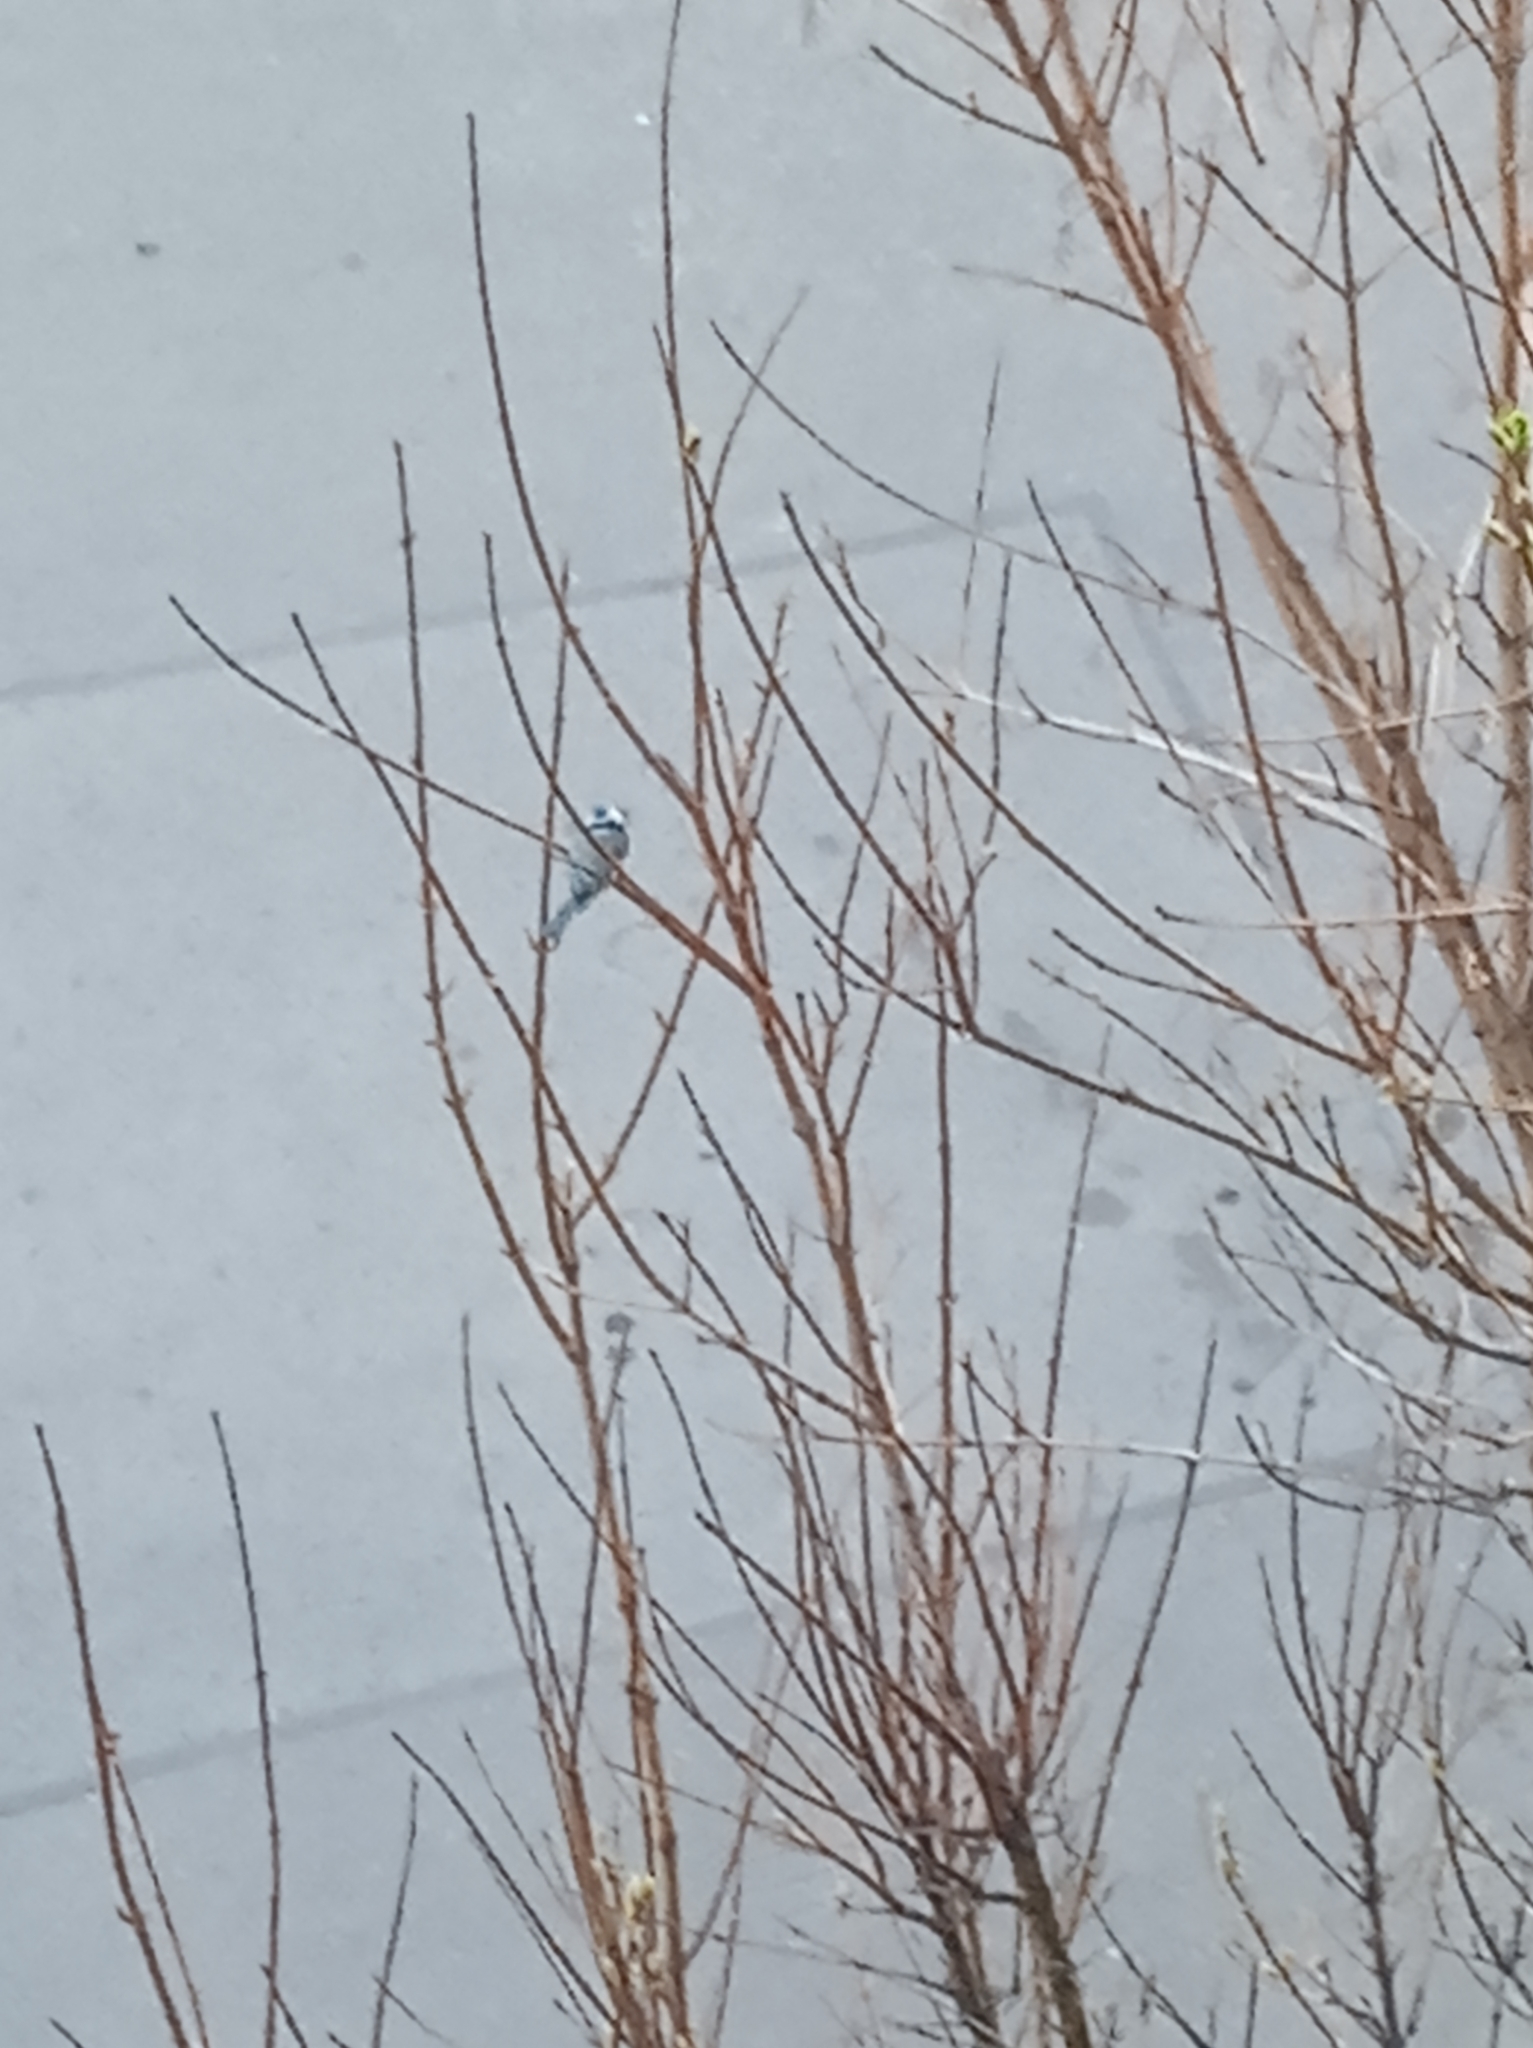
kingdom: Animalia
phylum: Chordata
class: Aves
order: Passeriformes
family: Paridae
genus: Cyanistes
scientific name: Cyanistes caeruleus
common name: Eurasian blue tit
